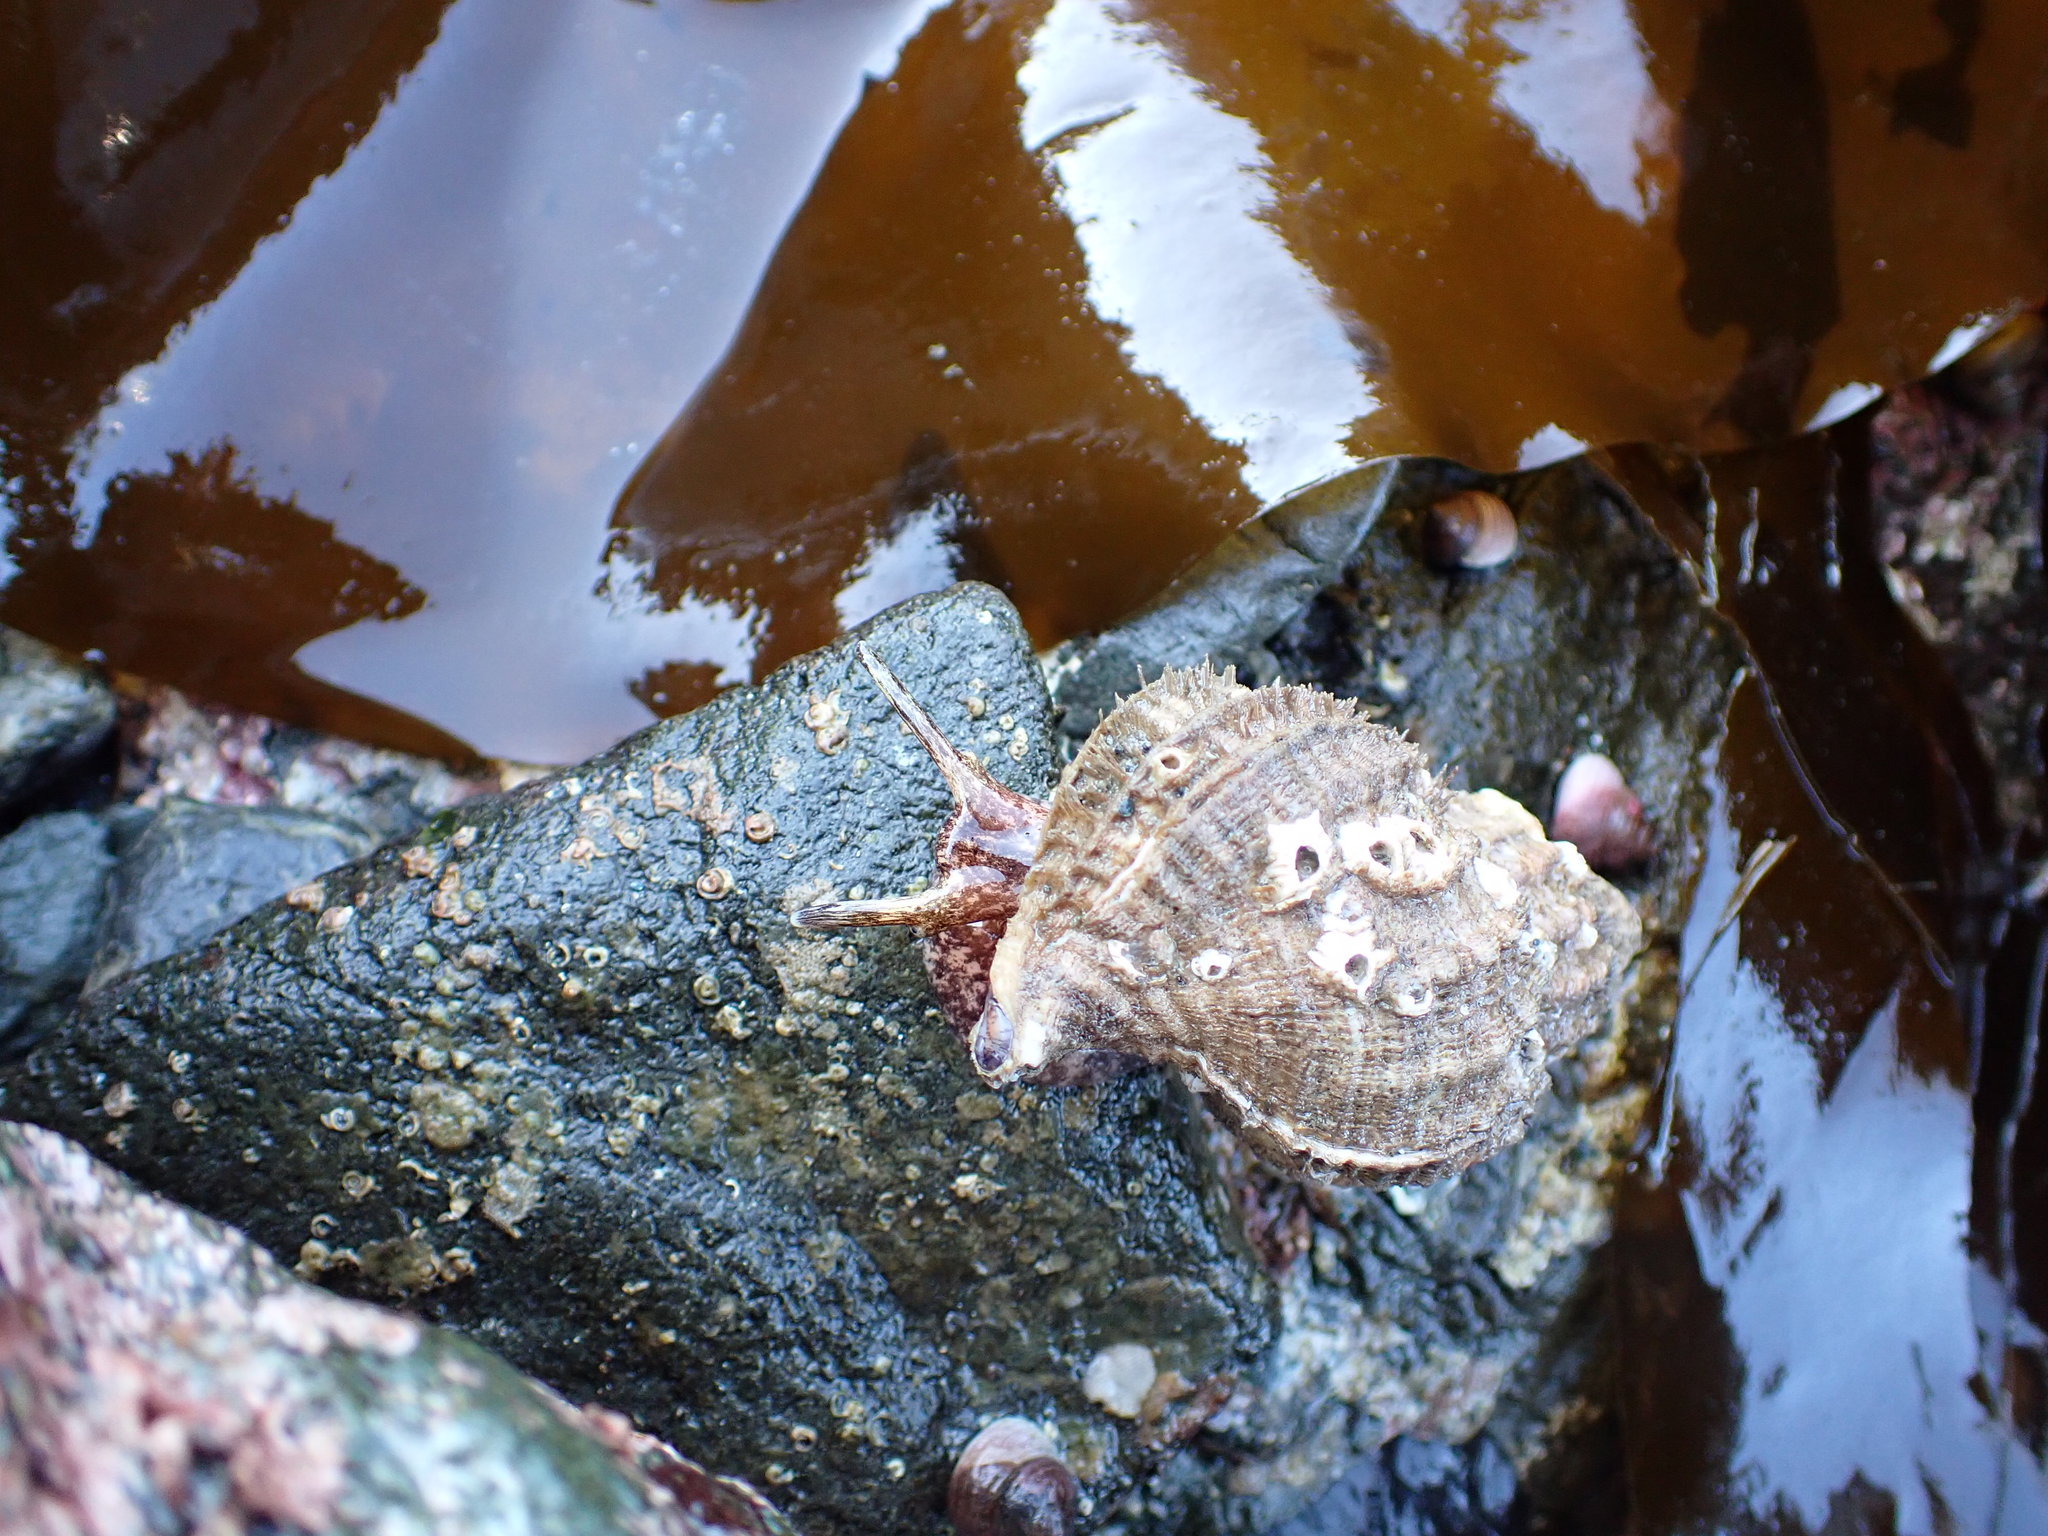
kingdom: Animalia
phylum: Mollusca
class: Gastropoda
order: Littorinimorpha
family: Cymatiidae
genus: Fusitriton
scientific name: Fusitriton oregonensis
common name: Oregon hairy triton
